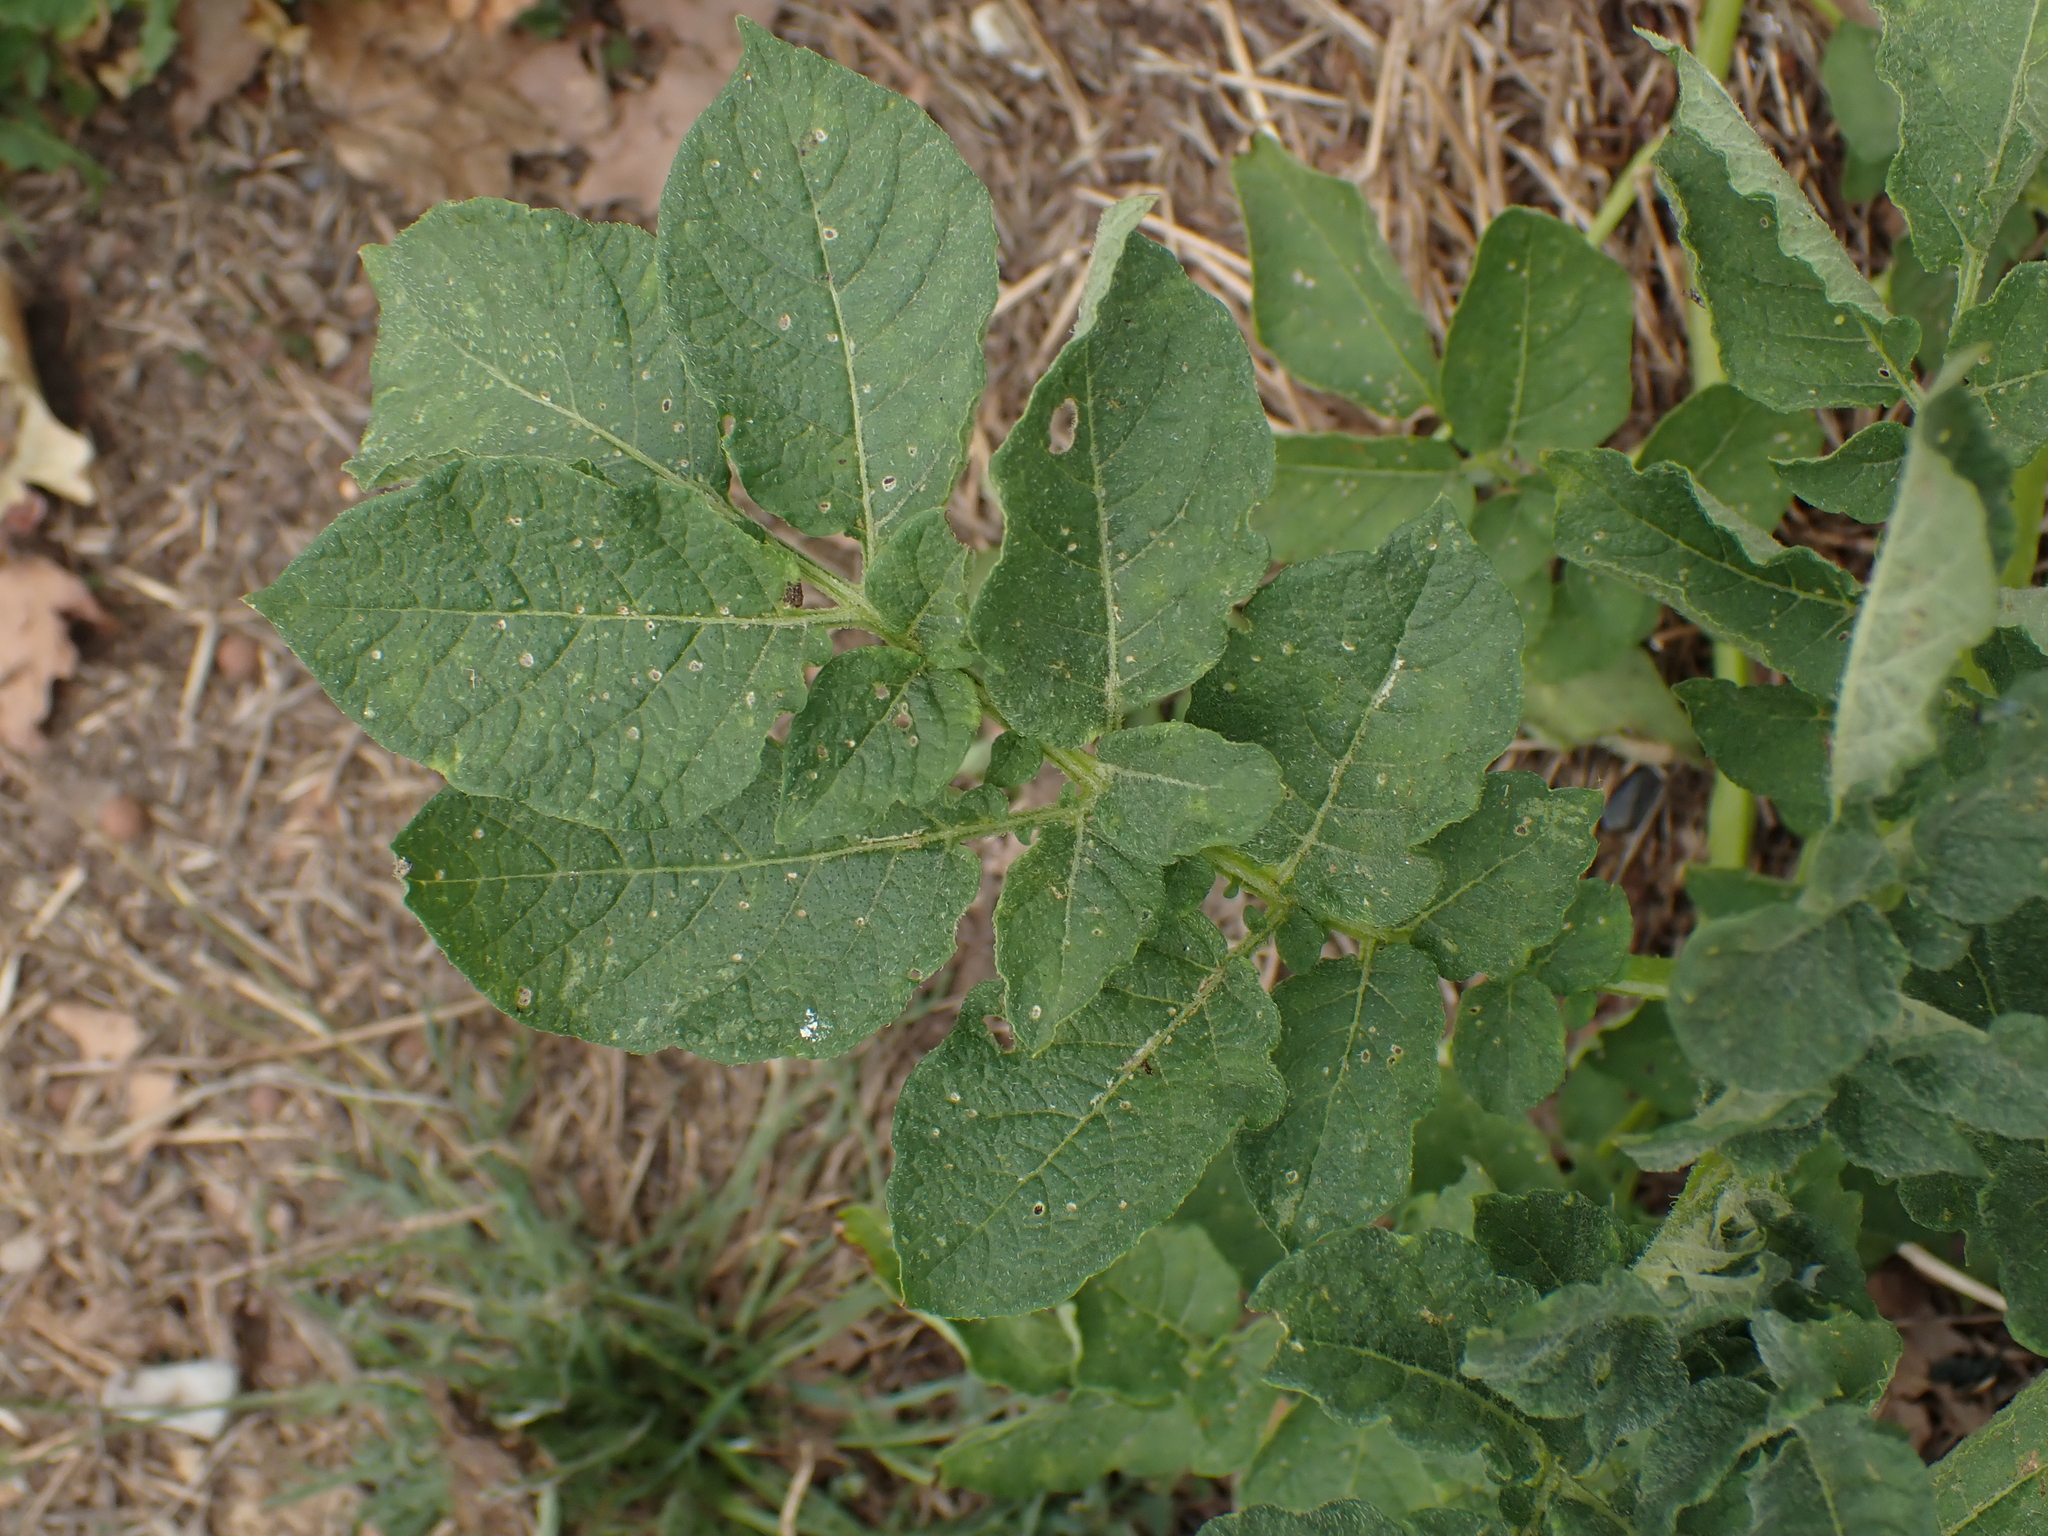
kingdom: Plantae
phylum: Tracheophyta
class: Magnoliopsida
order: Solanales
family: Solanaceae
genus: Solanum
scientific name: Solanum tuberosum
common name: Potato
